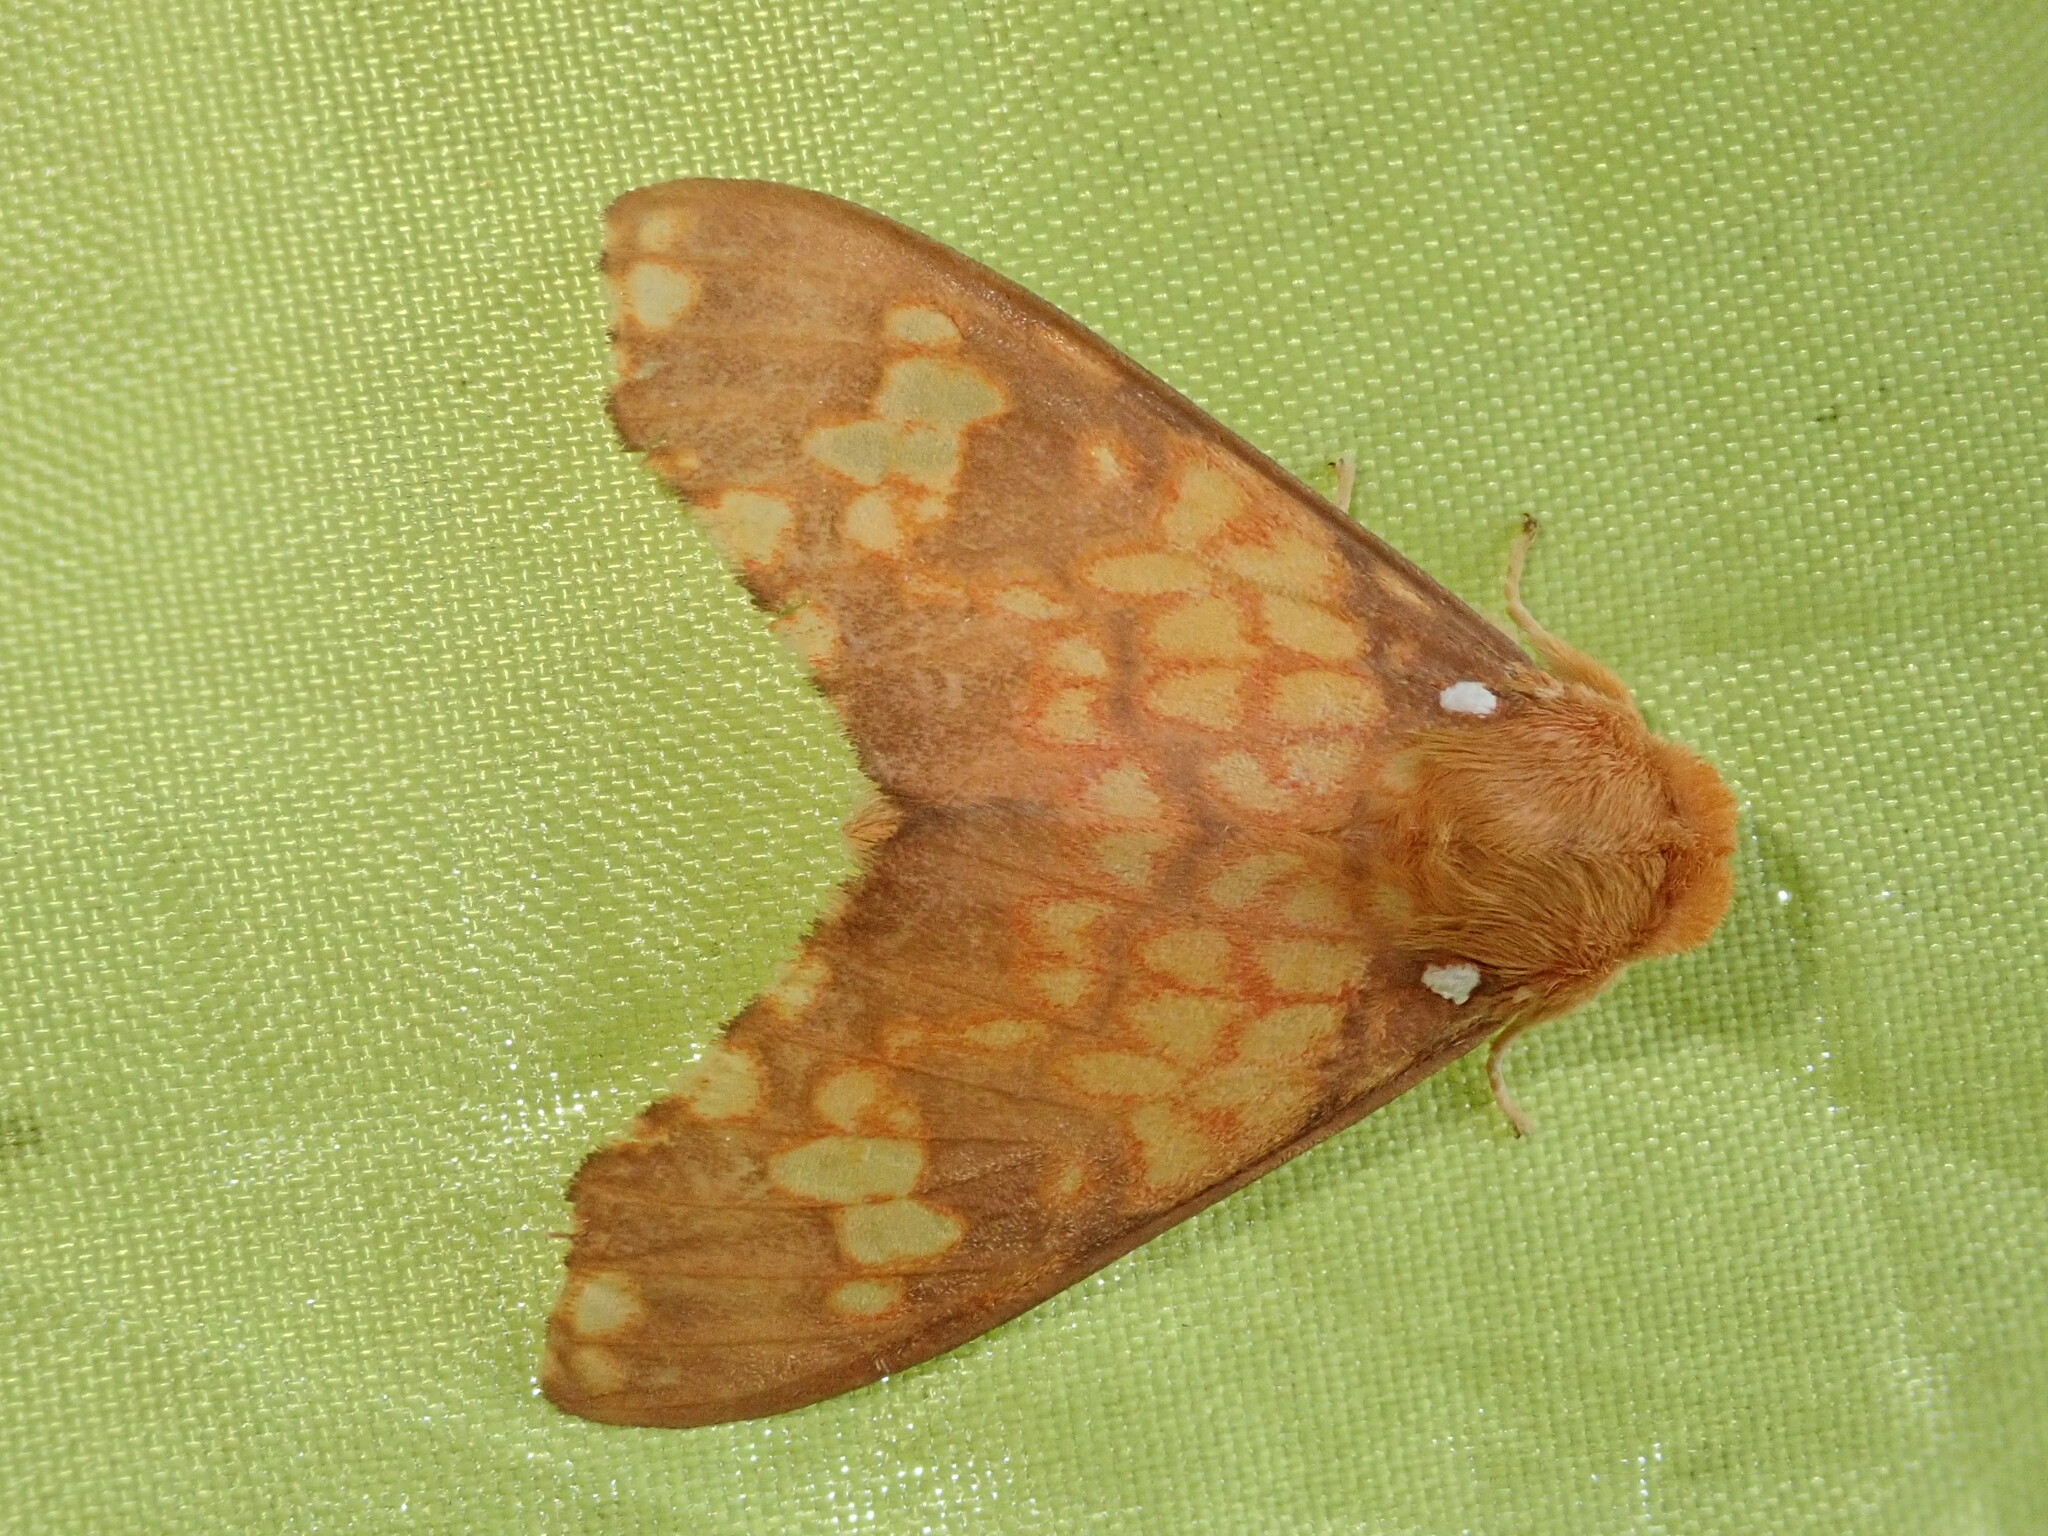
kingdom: Animalia
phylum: Arthropoda
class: Insecta
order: Lepidoptera
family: Erebidae
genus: Echeta
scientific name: Echeta pandiona
